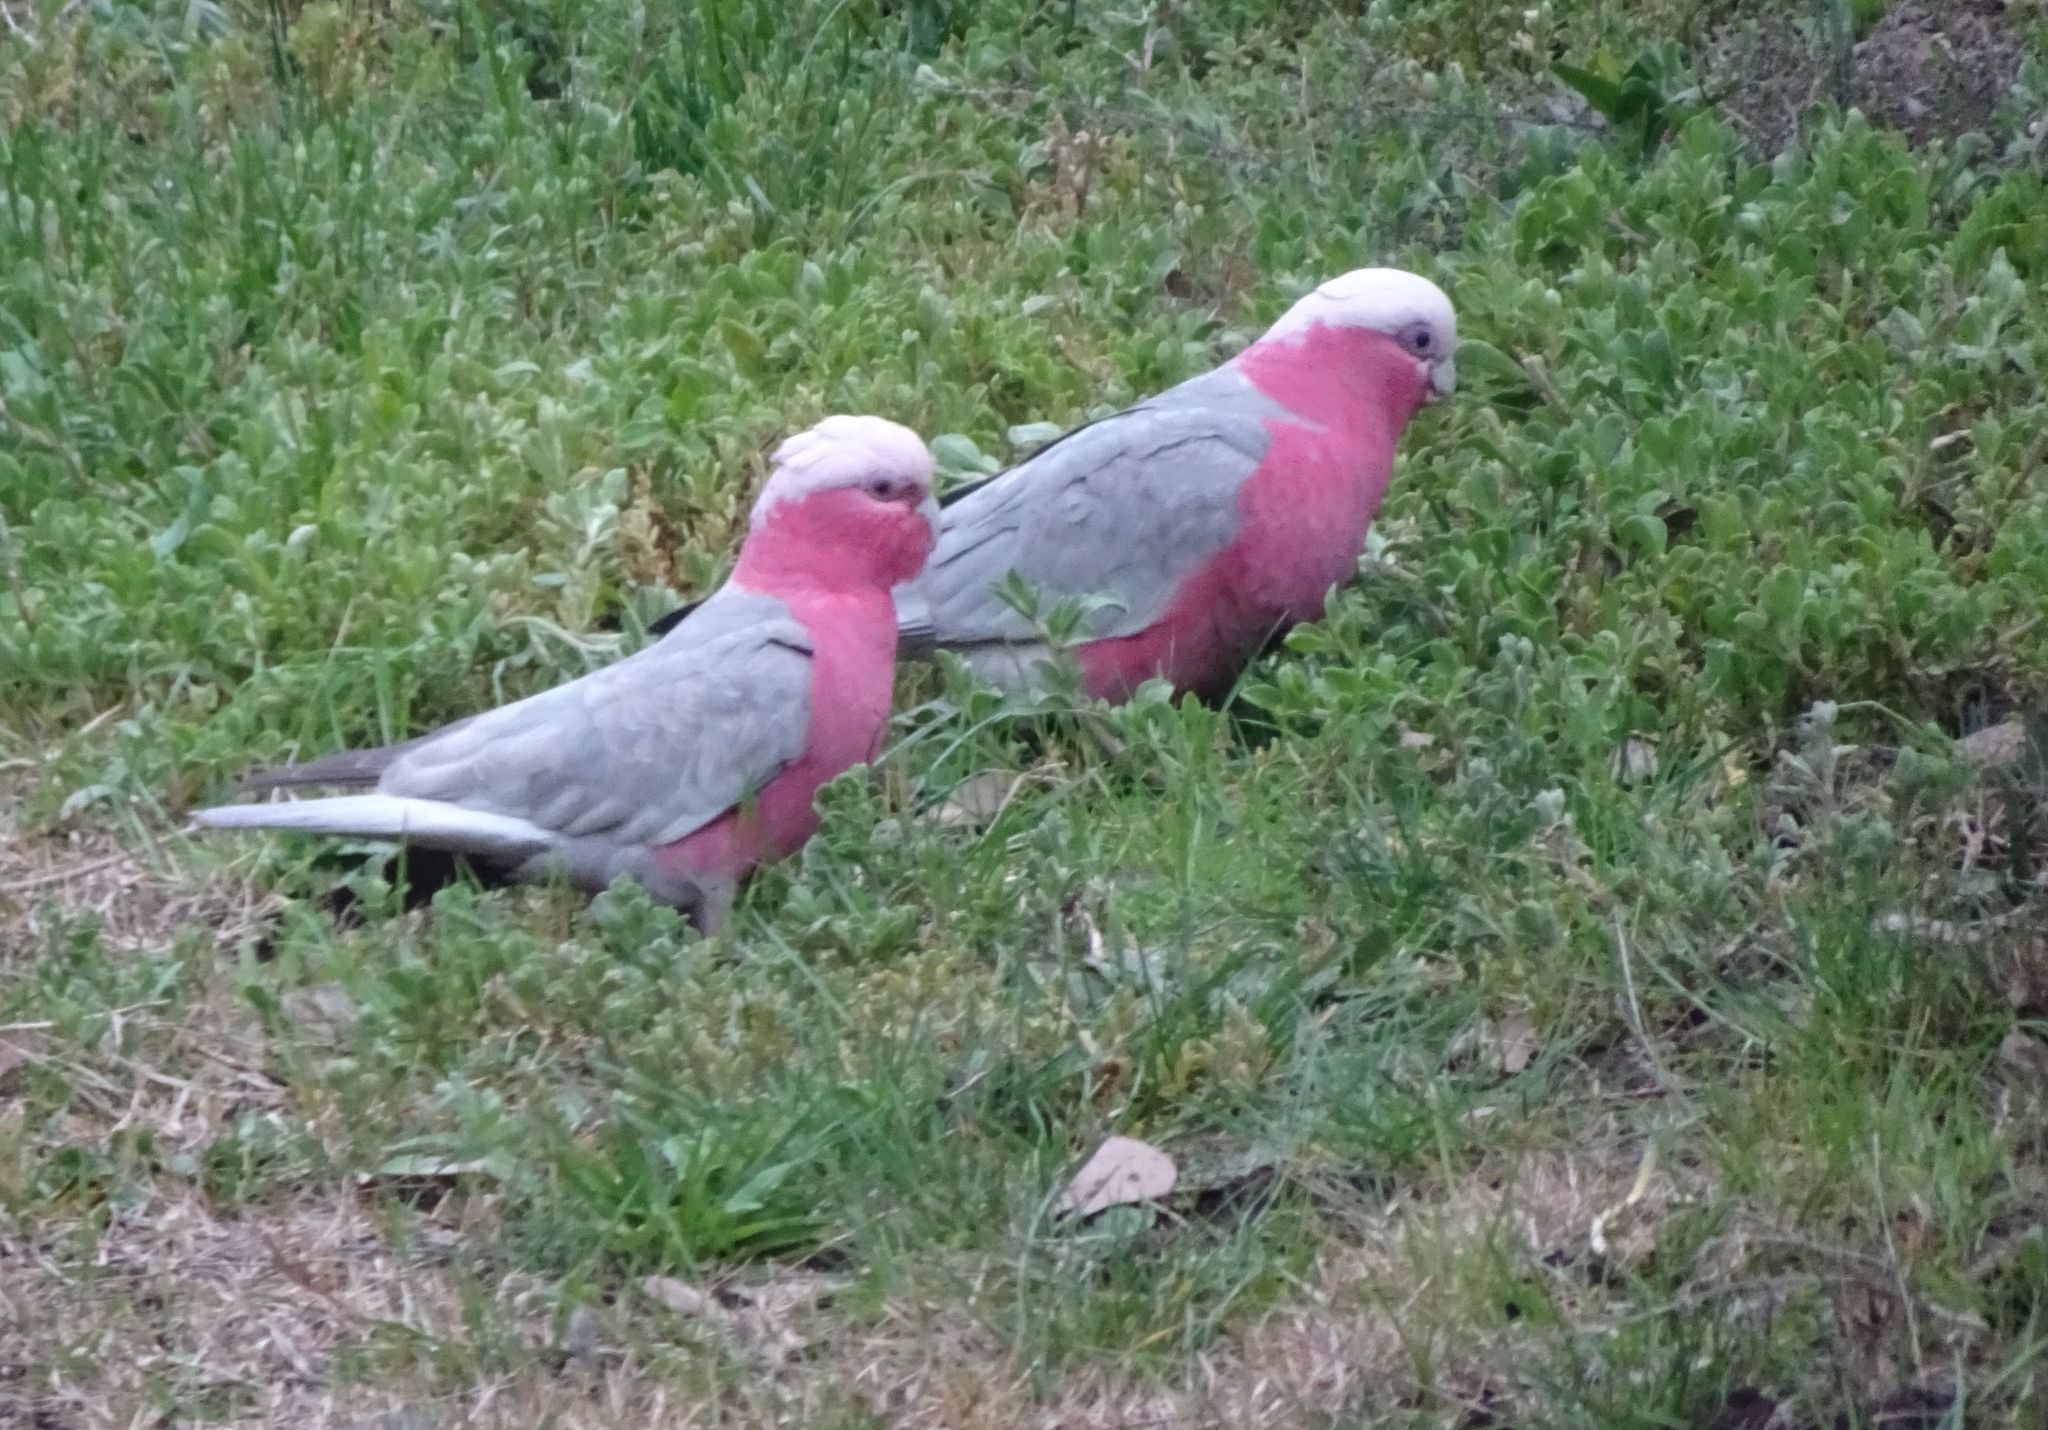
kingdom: Animalia
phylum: Chordata
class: Aves
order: Psittaciformes
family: Psittacidae
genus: Eolophus
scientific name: Eolophus roseicapilla
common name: Galah
